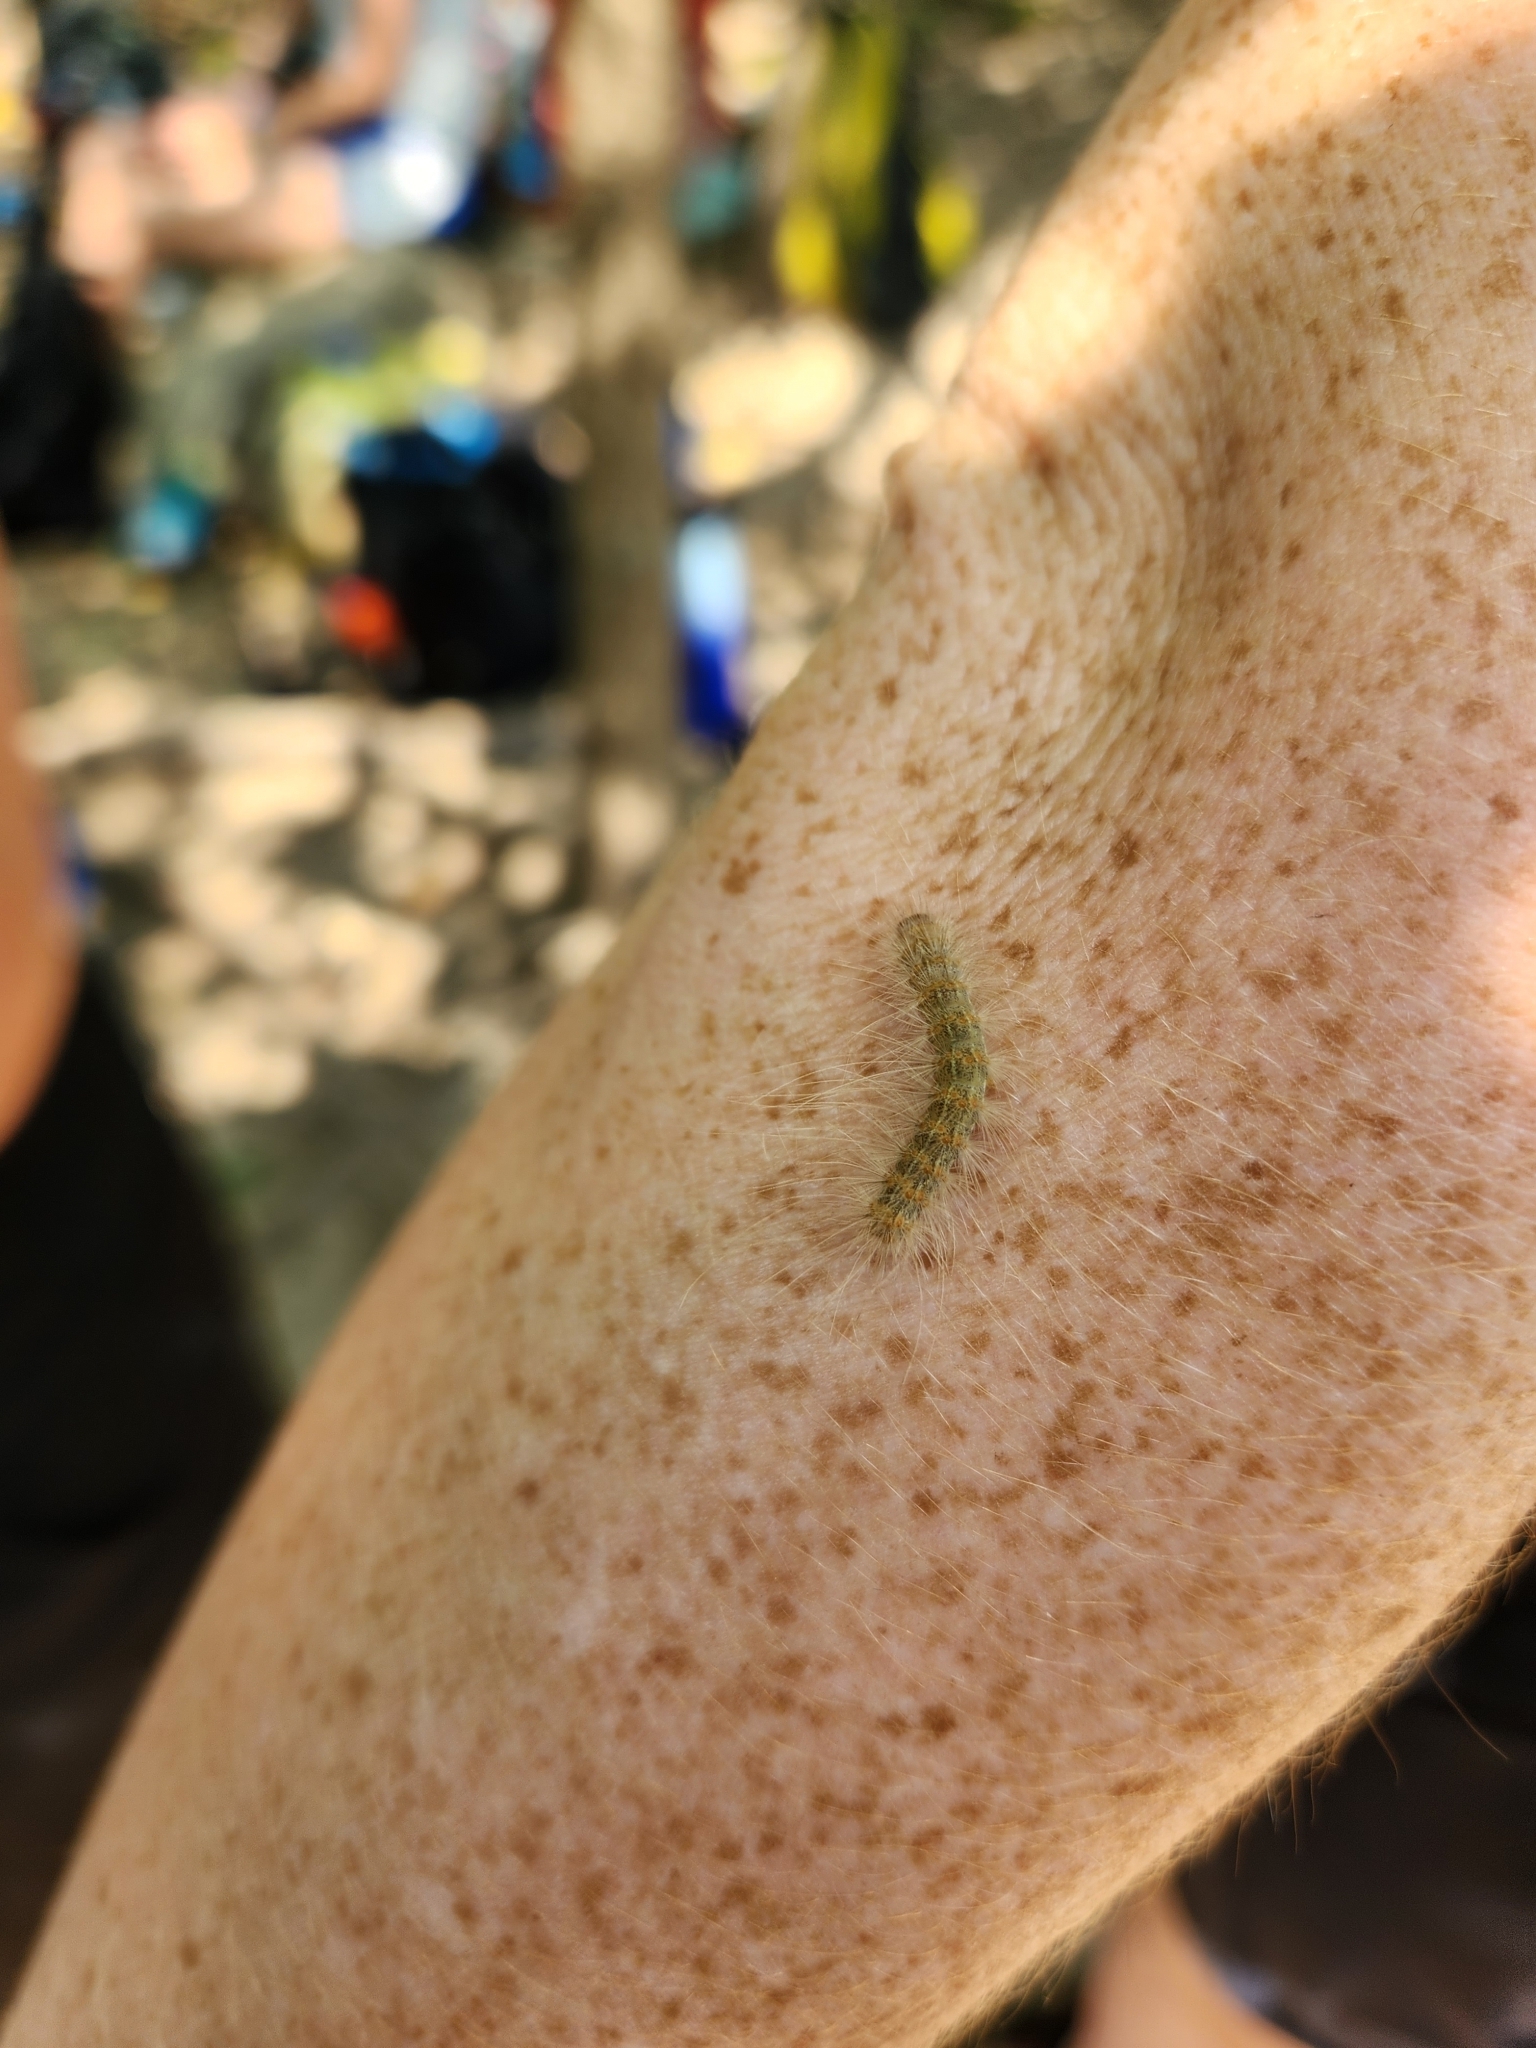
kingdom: Animalia
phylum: Arthropoda
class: Insecta
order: Lepidoptera
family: Erebidae
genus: Hyphantria
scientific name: Hyphantria cunea
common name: American white moth
